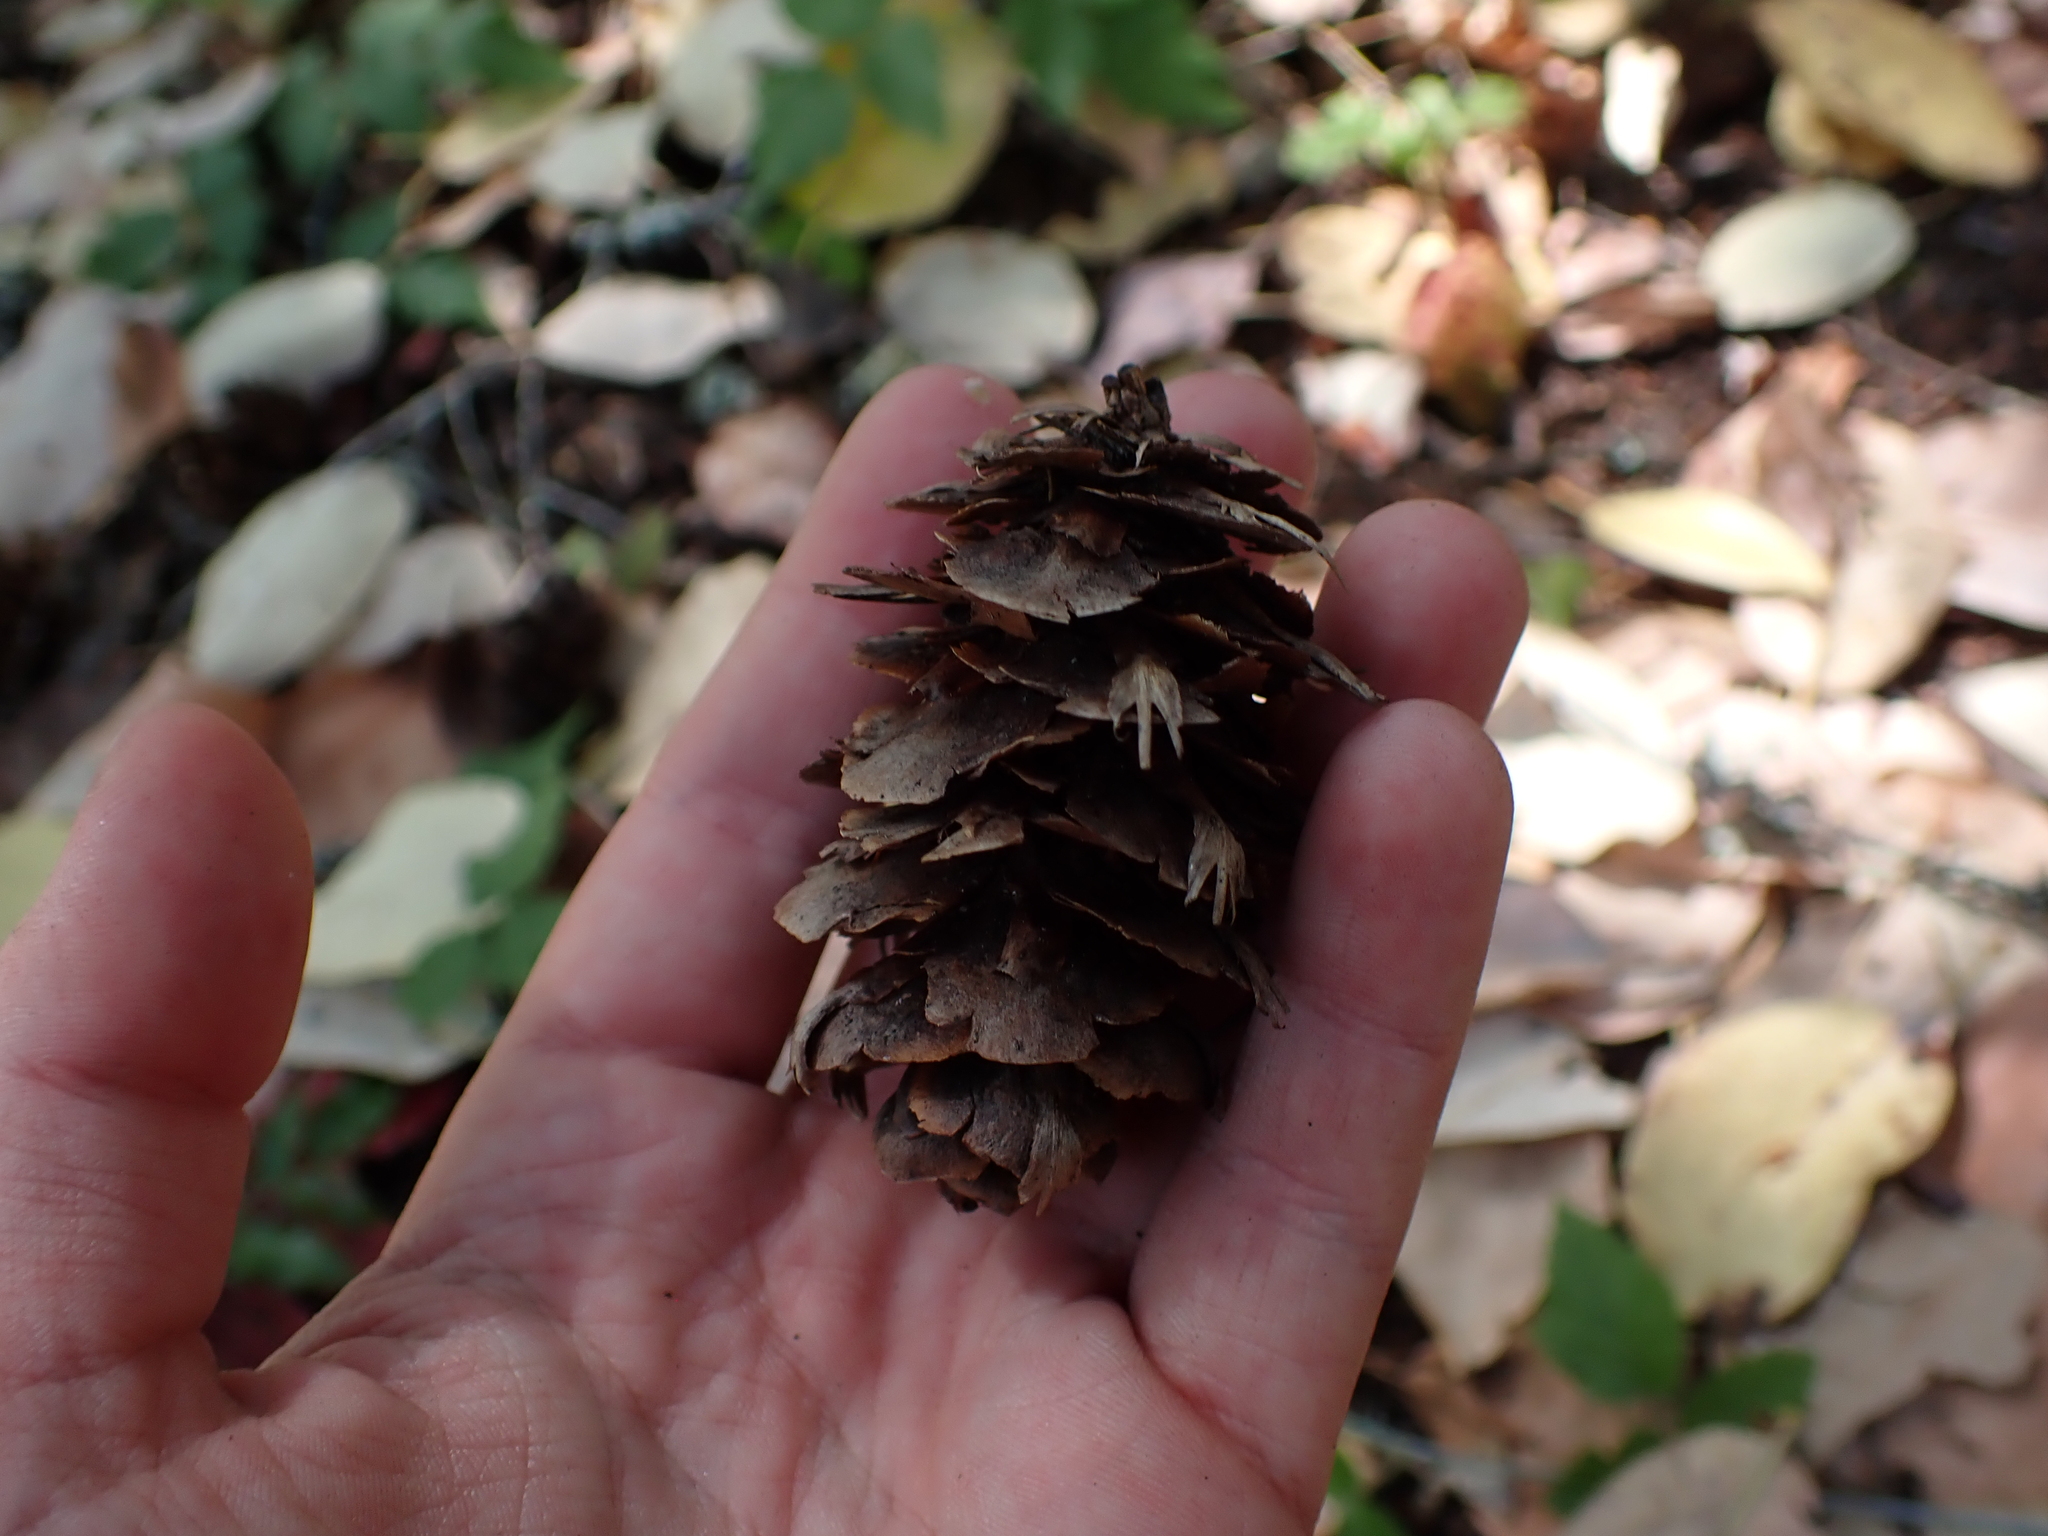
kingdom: Plantae
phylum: Tracheophyta
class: Pinopsida
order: Pinales
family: Pinaceae
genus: Pseudotsuga
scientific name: Pseudotsuga menziesii
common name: Douglas fir
